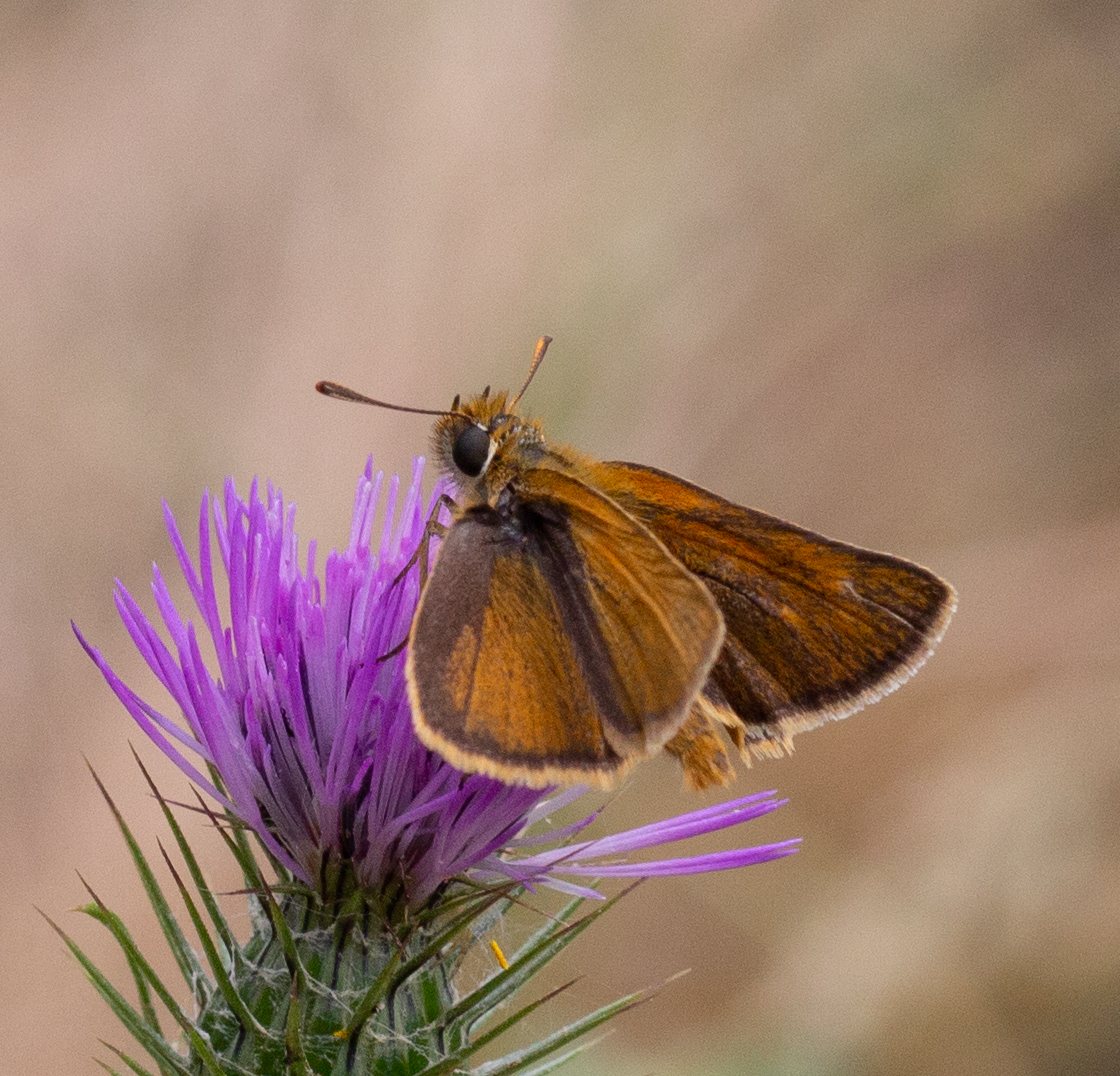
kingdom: Animalia
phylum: Arthropoda
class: Insecta
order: Lepidoptera
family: Hesperiidae
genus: Thymelicus
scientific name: Thymelicus acteon
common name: Lulworth skipper
